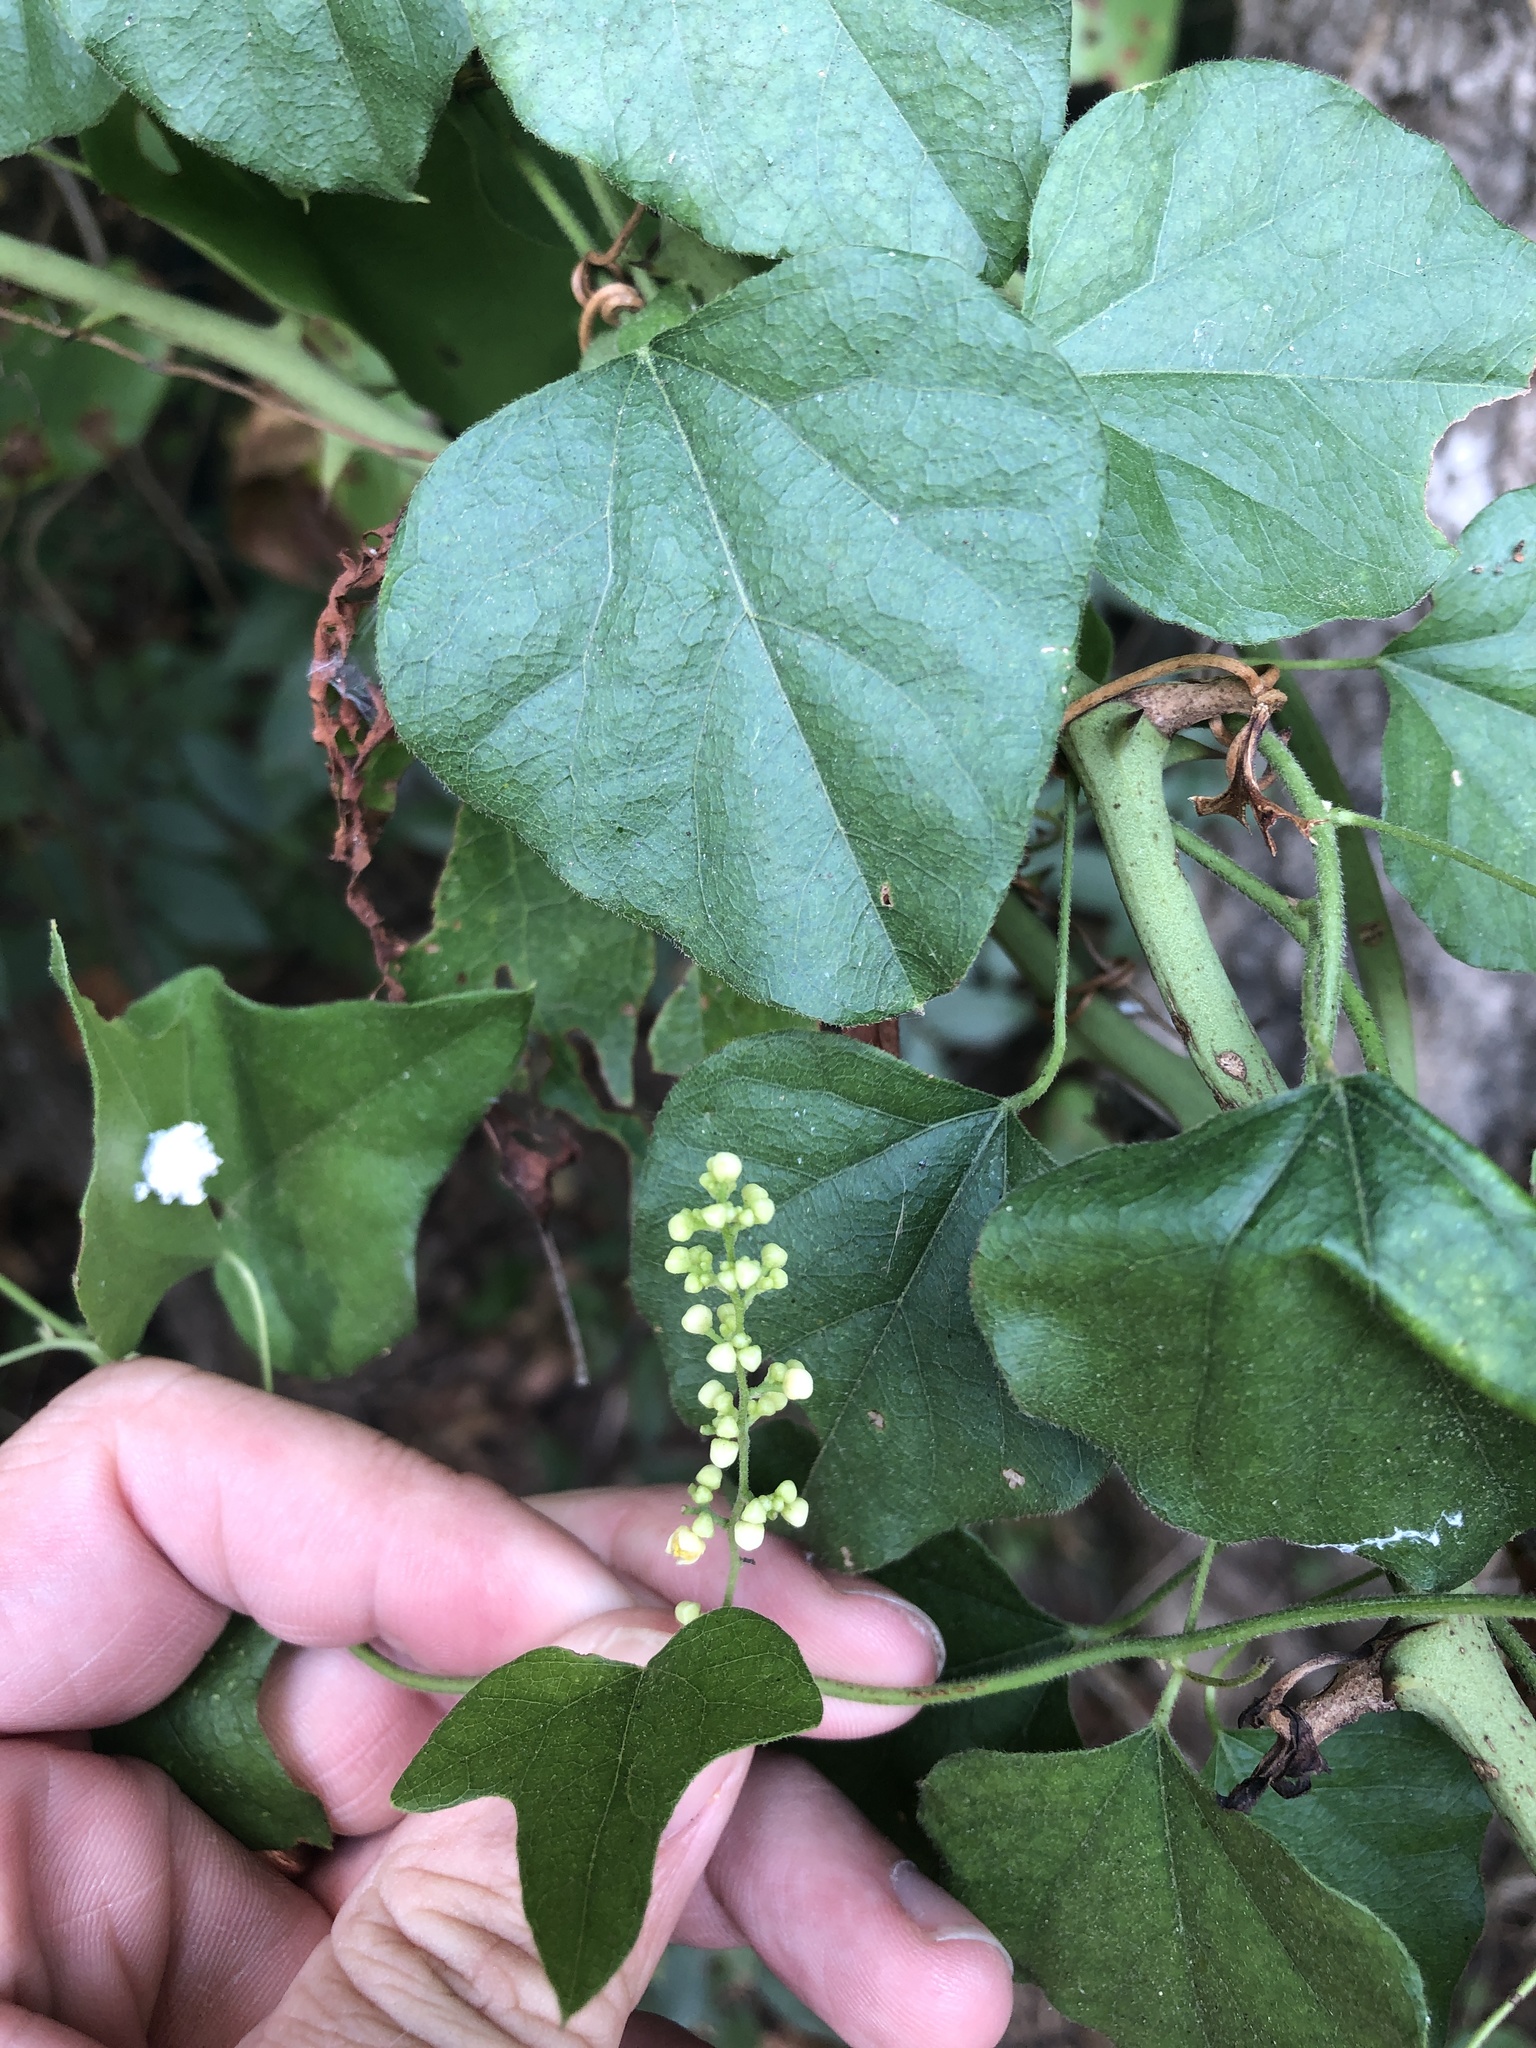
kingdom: Plantae
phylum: Tracheophyta
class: Magnoliopsida
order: Ranunculales
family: Menispermaceae
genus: Cocculus
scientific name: Cocculus carolinus
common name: Carolina moonseed
